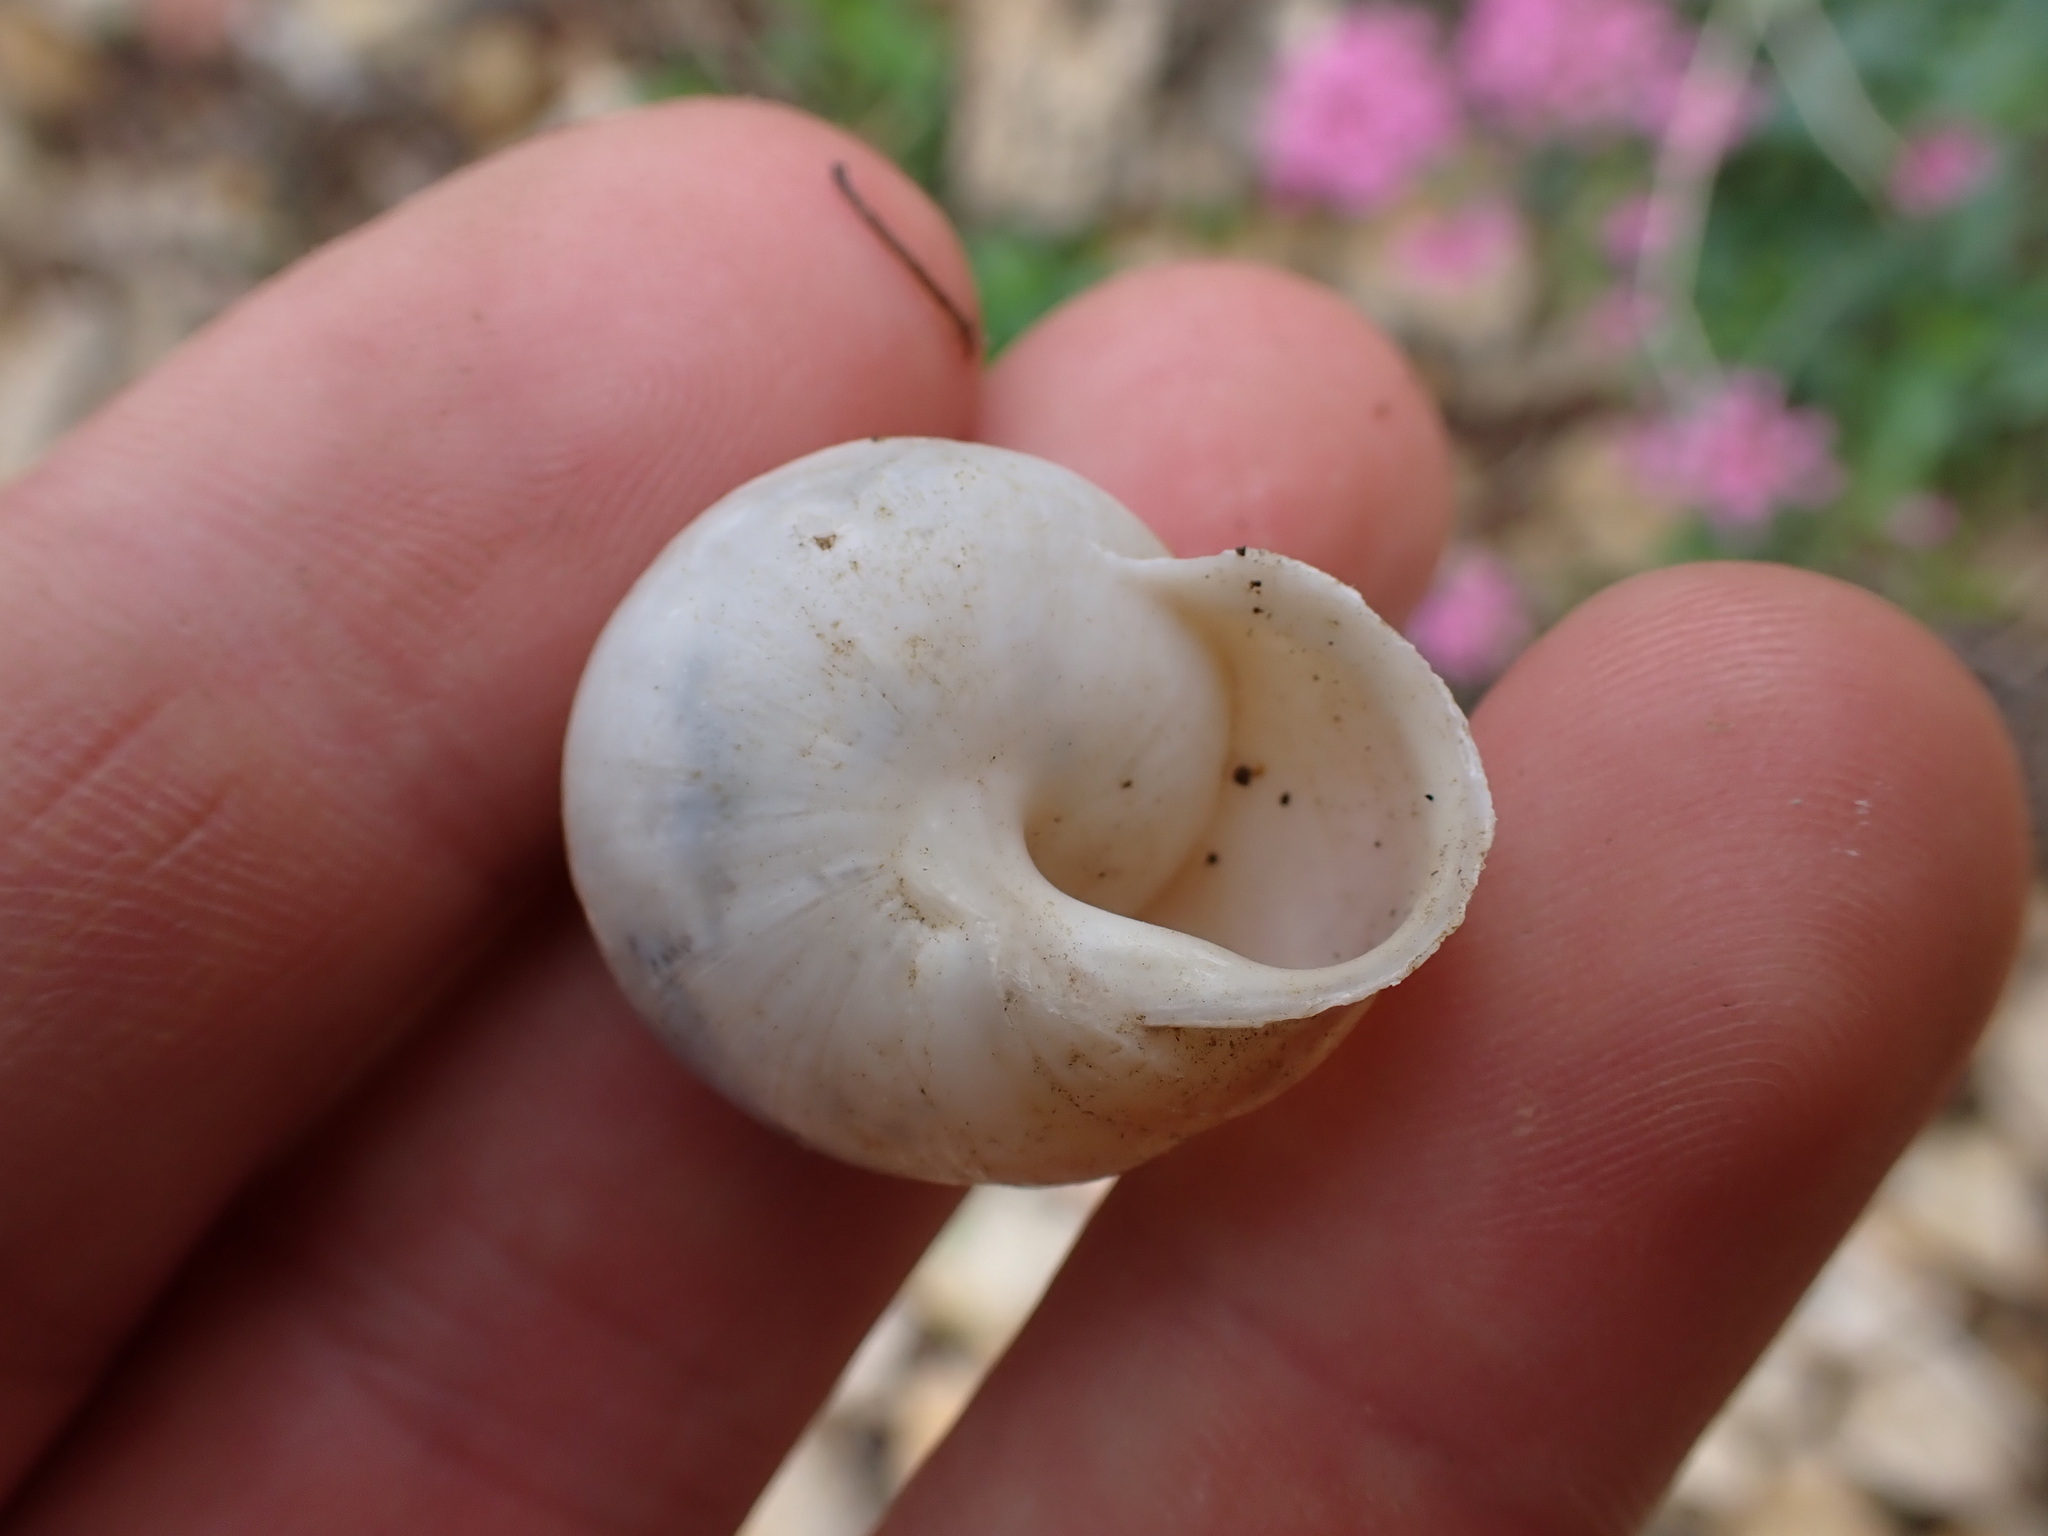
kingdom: Animalia
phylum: Mollusca
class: Gastropoda
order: Stylommatophora
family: Helicidae
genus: Eobania
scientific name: Eobania vermiculata
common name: Chocolateband snail
